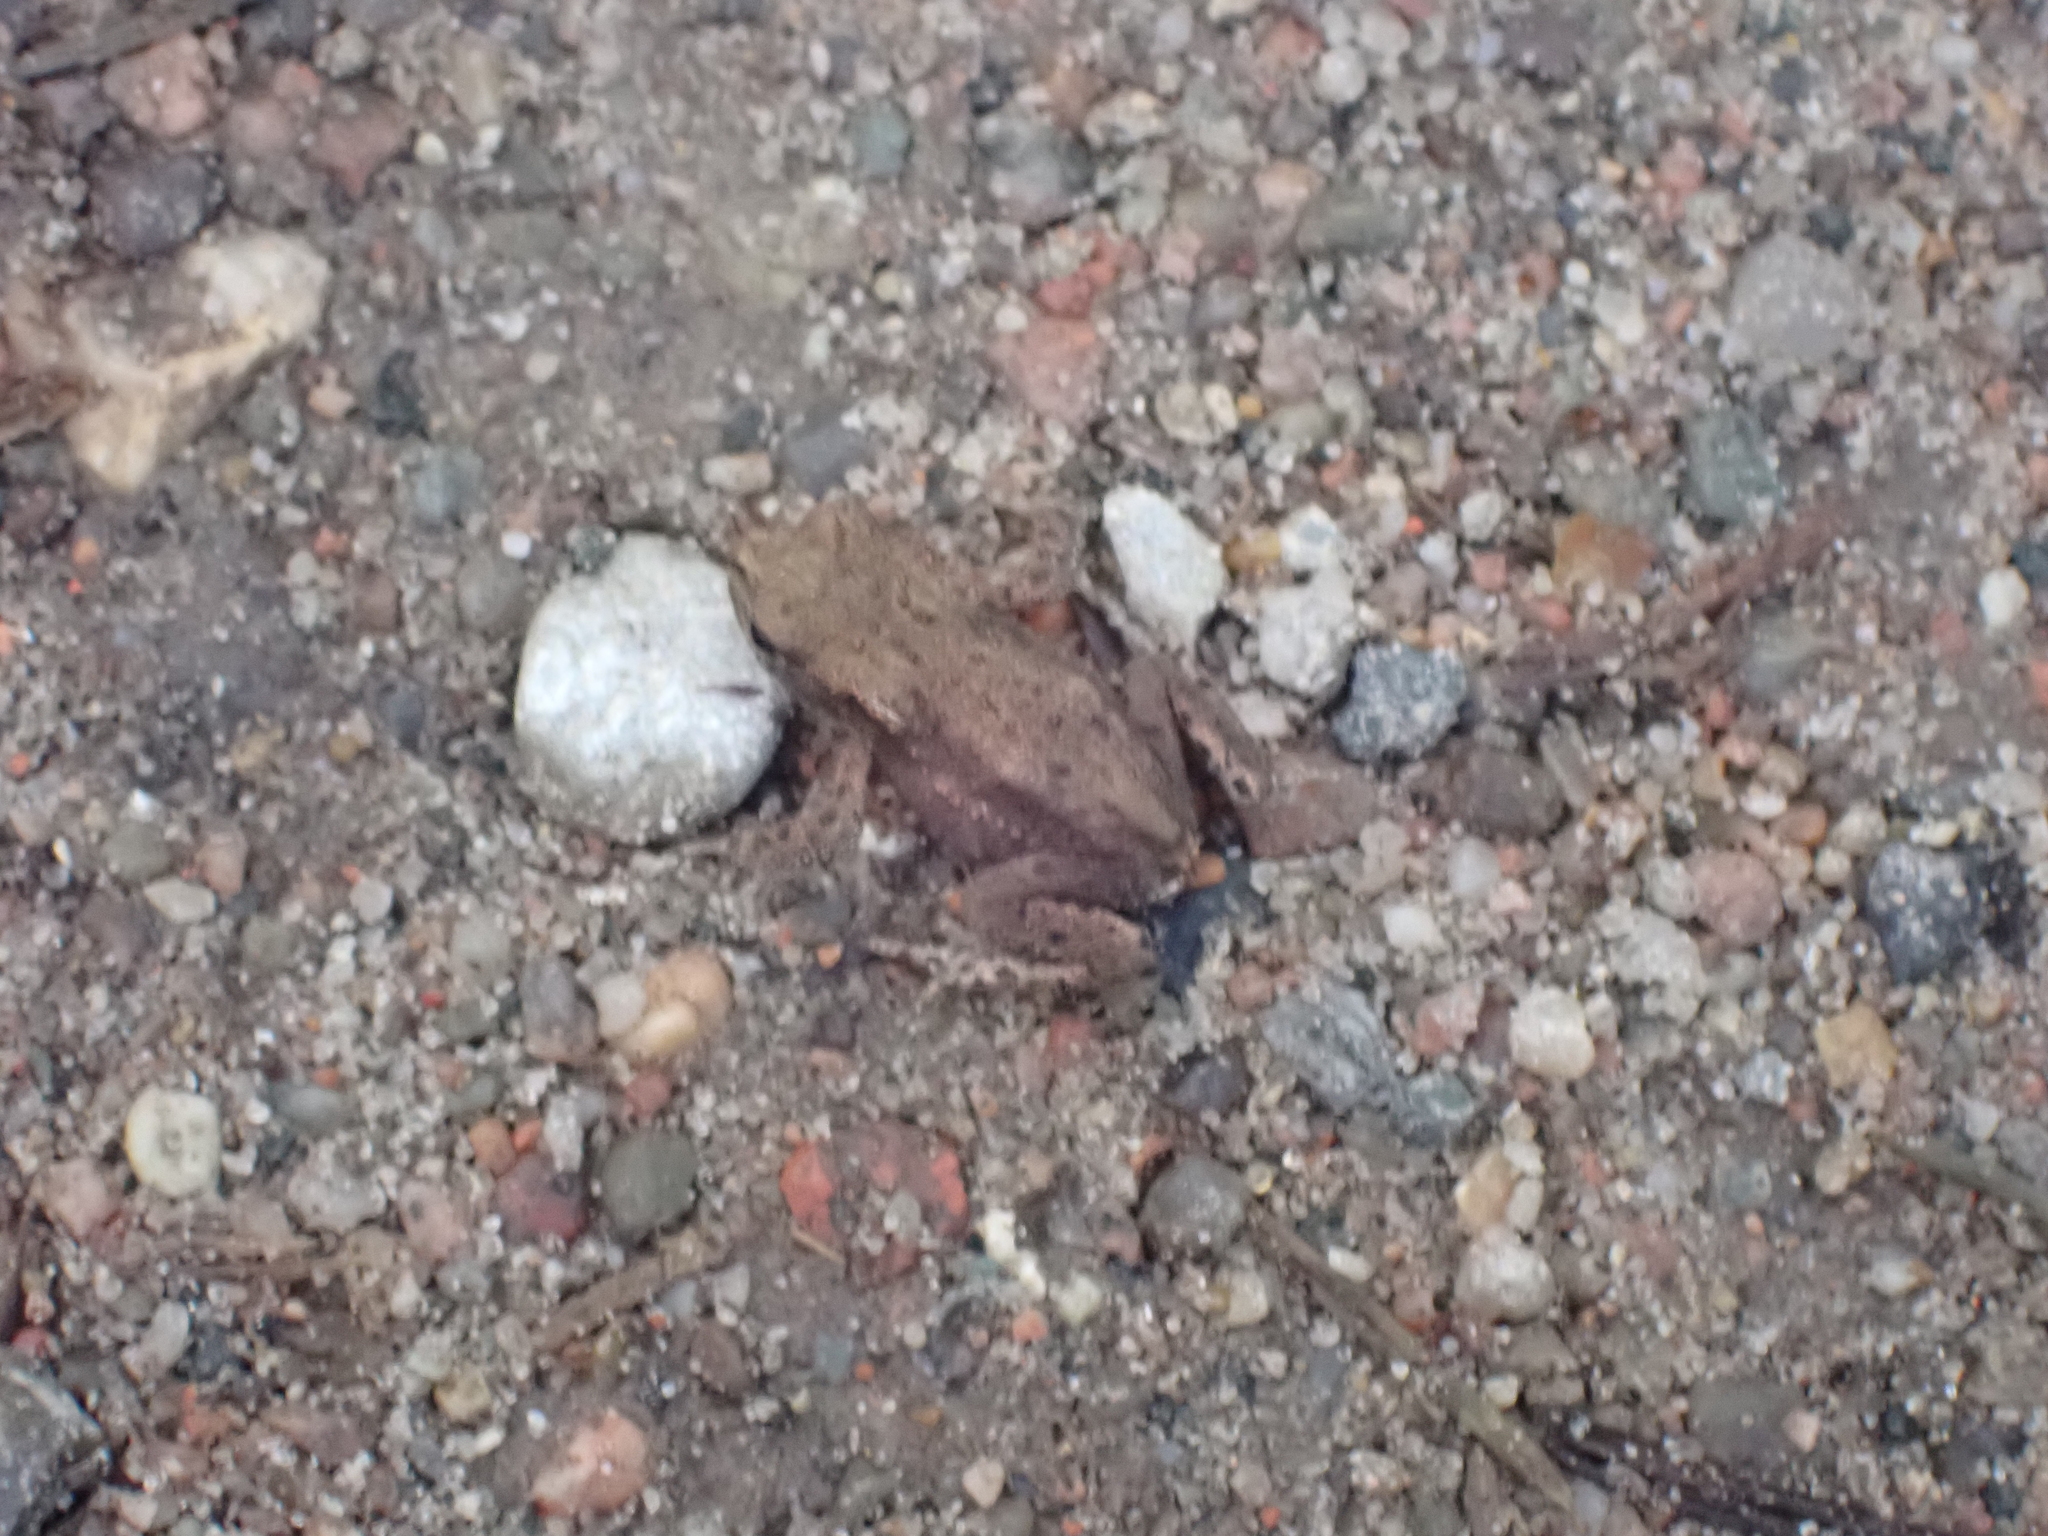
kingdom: Animalia
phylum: Chordata
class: Amphibia
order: Anura
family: Bufonidae
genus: Bufo
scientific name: Bufo bufo
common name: Common toad
